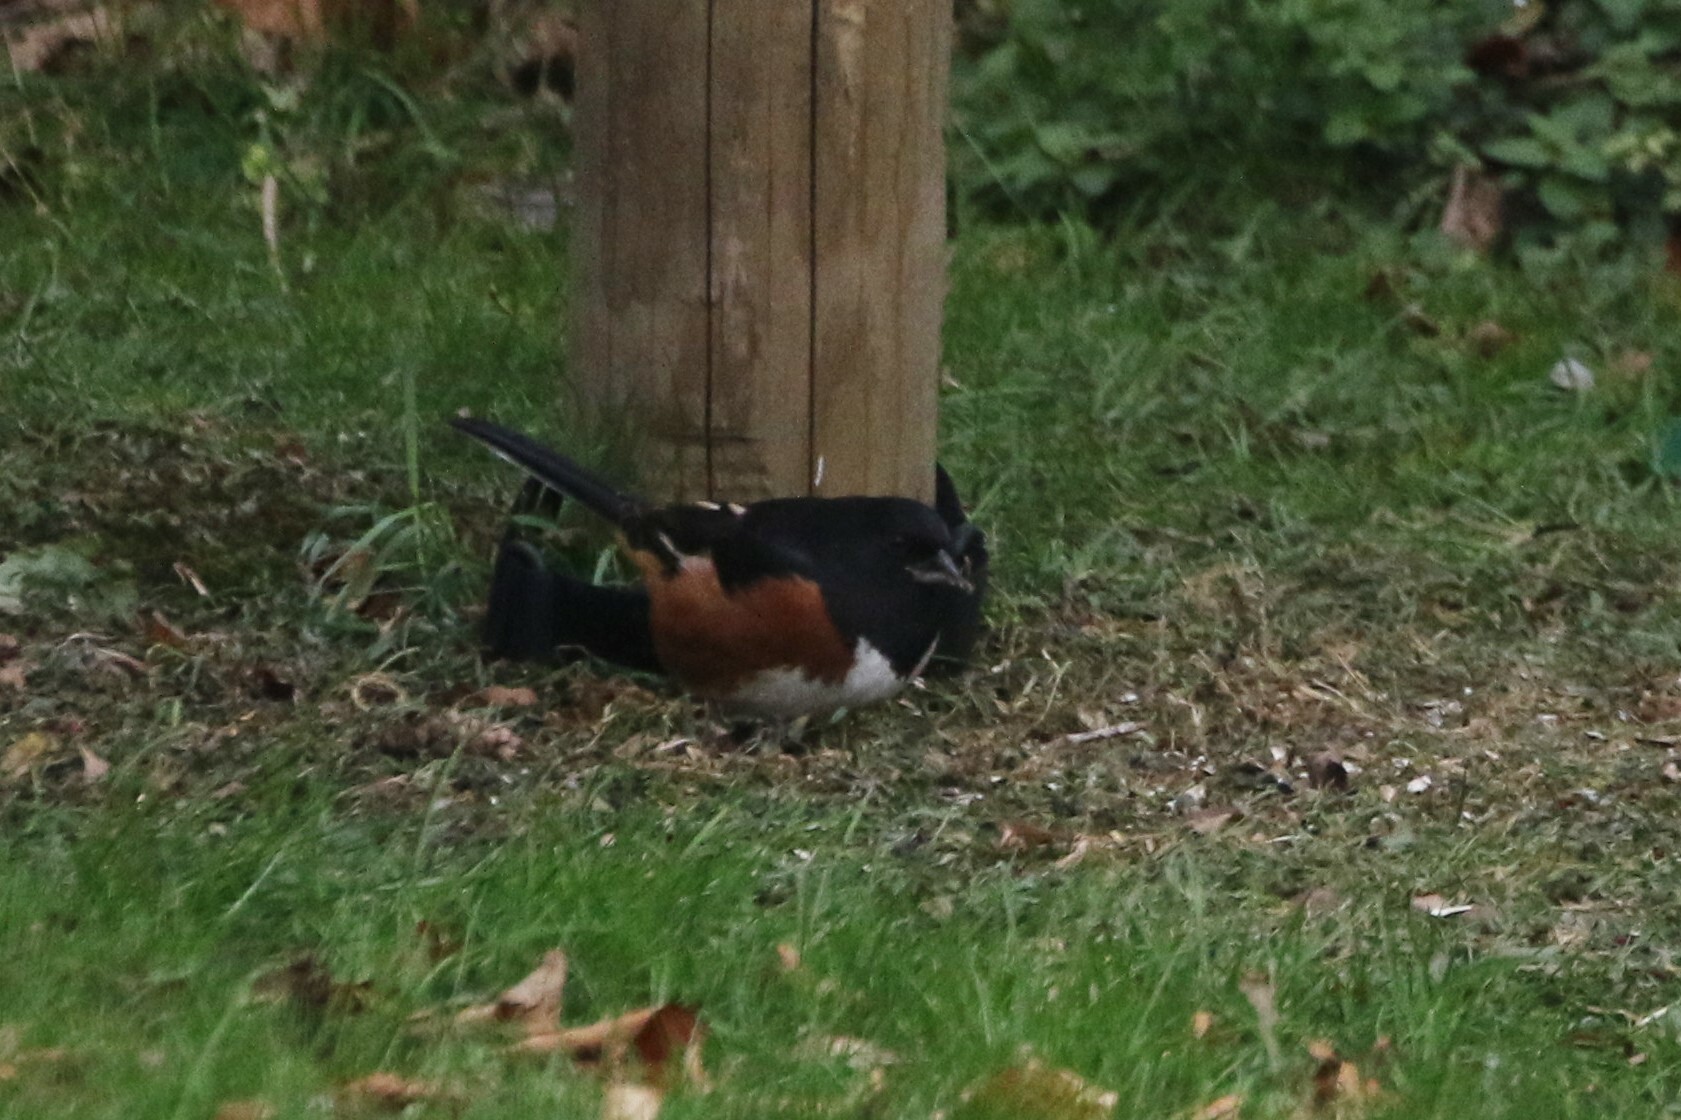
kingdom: Animalia
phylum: Chordata
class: Aves
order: Passeriformes
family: Passerellidae
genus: Pipilo
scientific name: Pipilo erythrophthalmus
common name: Eastern towhee
